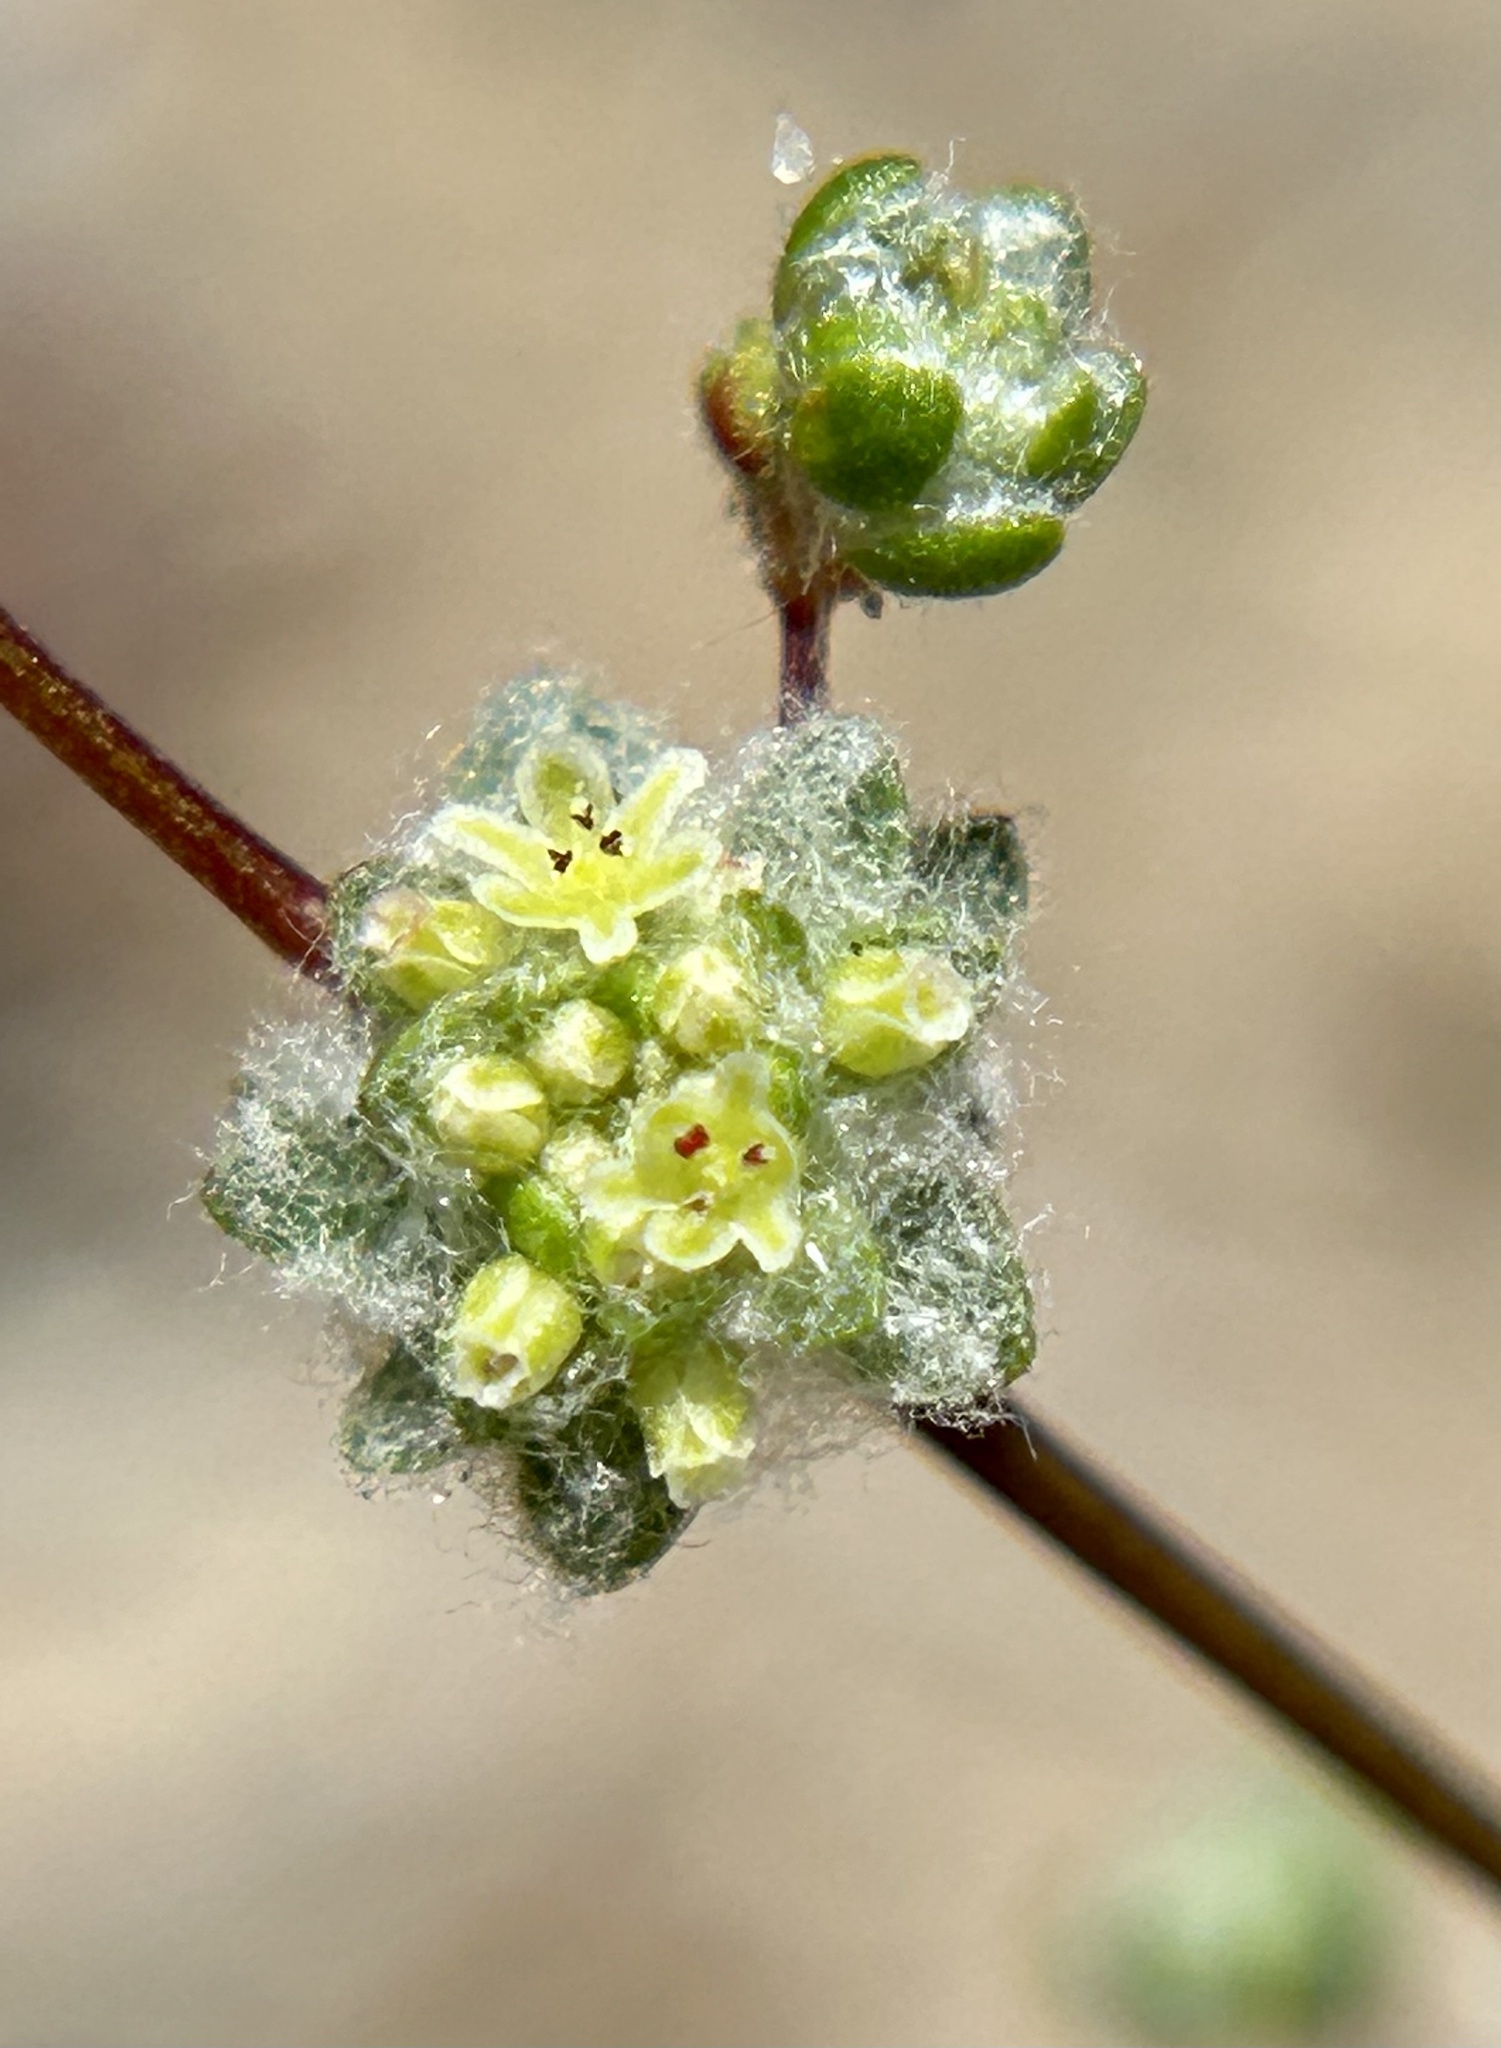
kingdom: Plantae
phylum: Tracheophyta
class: Magnoliopsida
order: Caryophyllales
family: Polygonaceae
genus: Nemacaulis
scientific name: Nemacaulis denudata
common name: Woolly-heads
